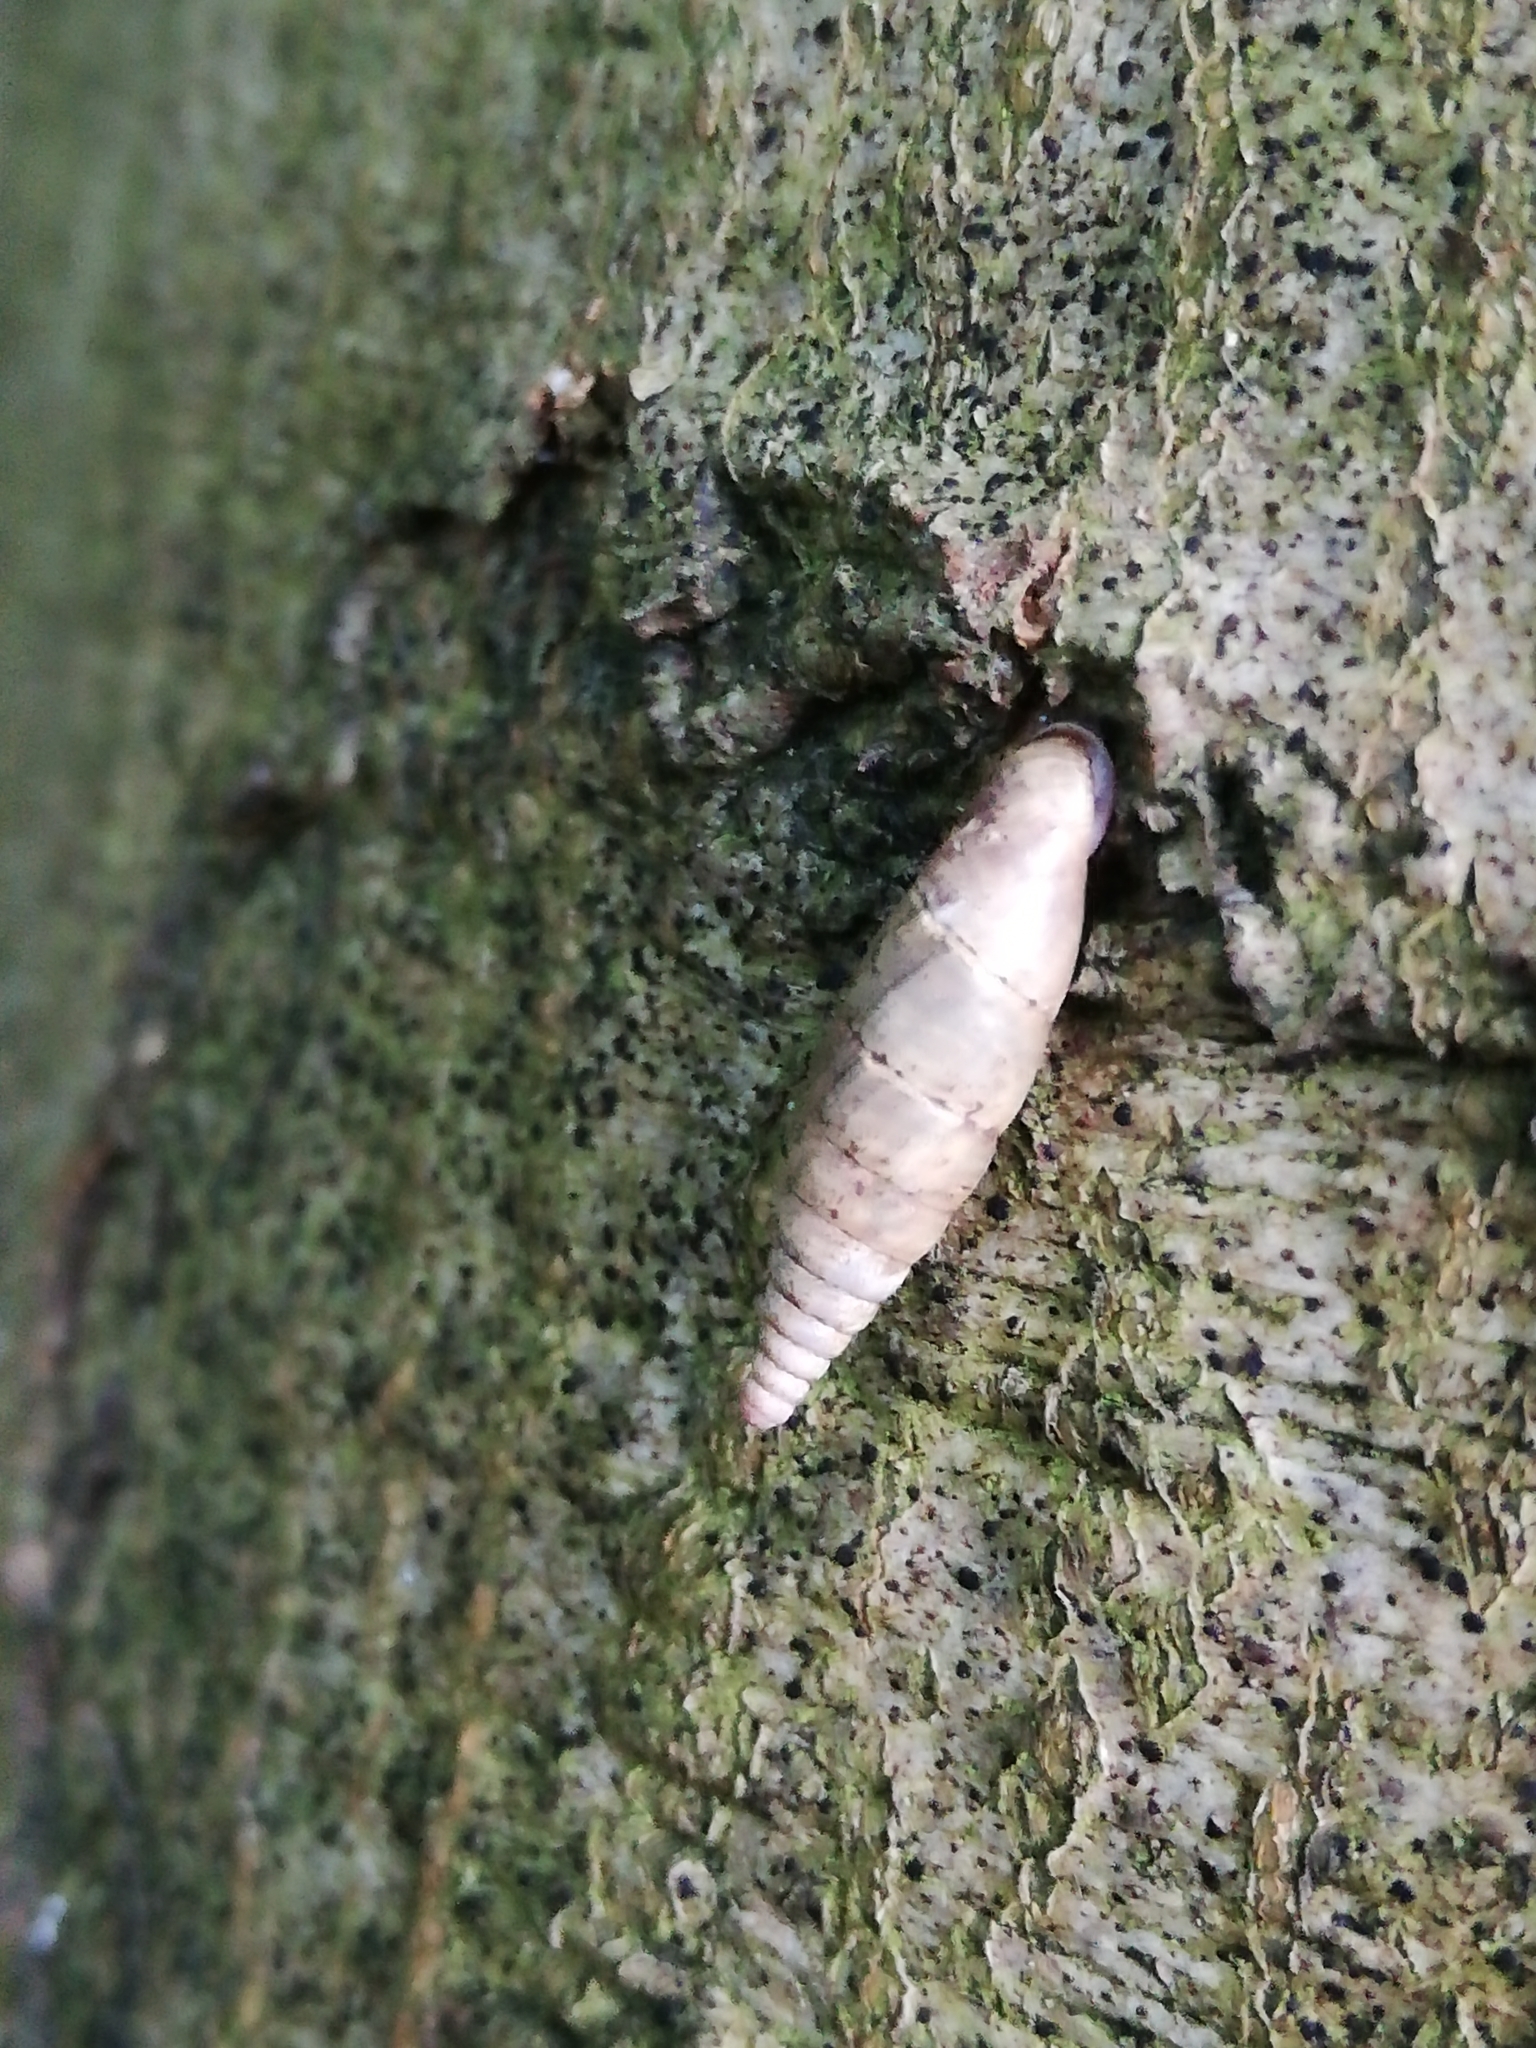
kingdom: Animalia
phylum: Mollusca
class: Gastropoda
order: Stylommatophora
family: Clausiliidae
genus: Cochlodina
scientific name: Cochlodina laminata
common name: Plaited door snail
